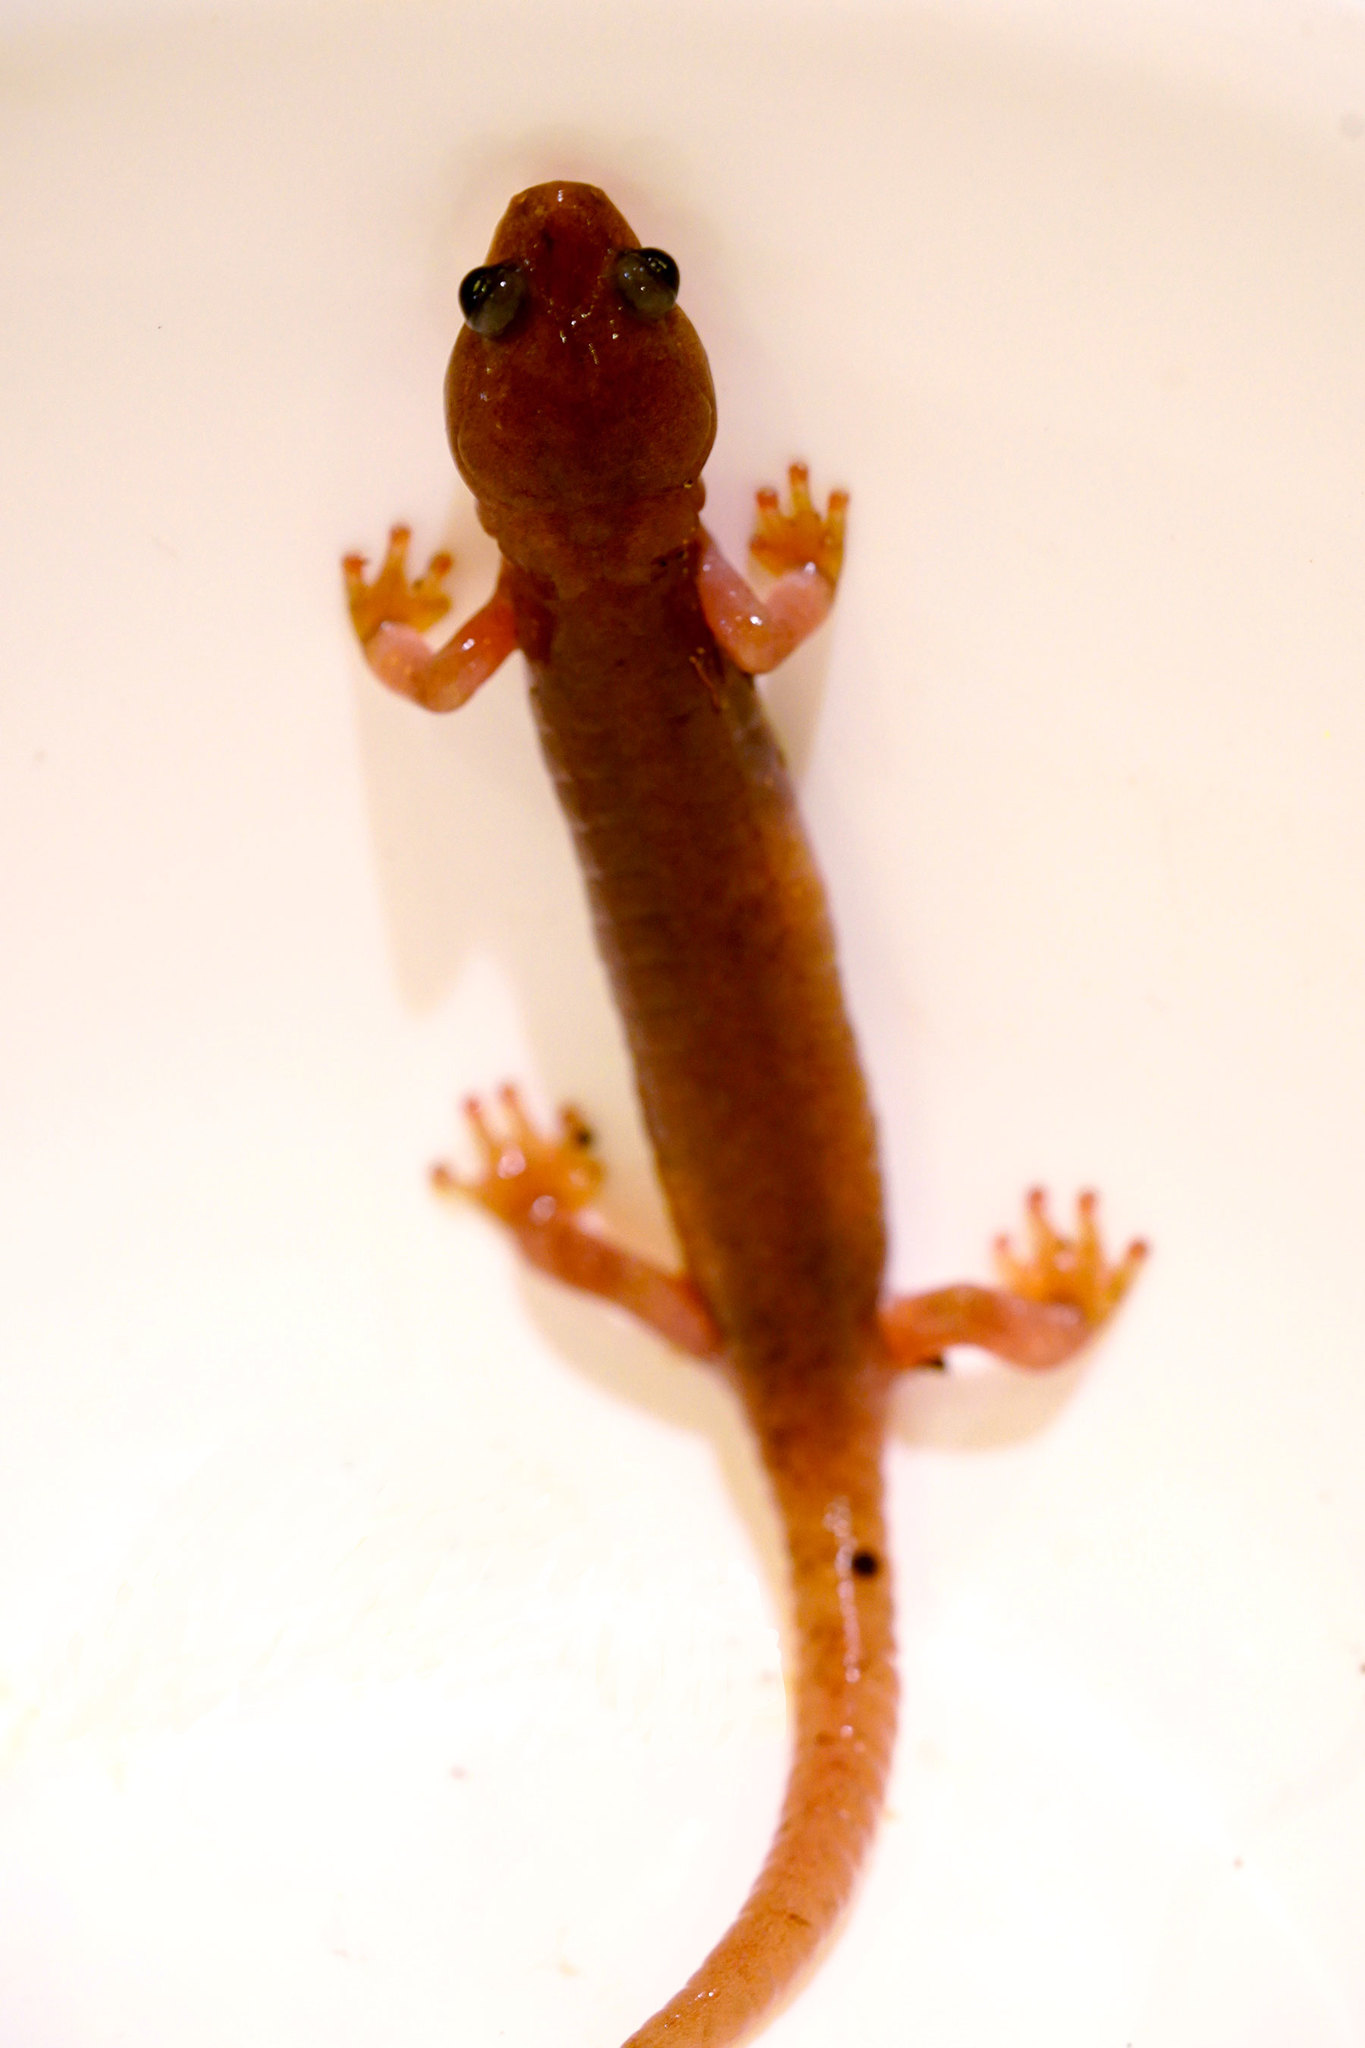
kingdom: Animalia
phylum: Chordata
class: Amphibia
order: Caudata
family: Plethodontidae
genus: Aneides
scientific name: Aneides lugubris
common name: Arboreal salamander
